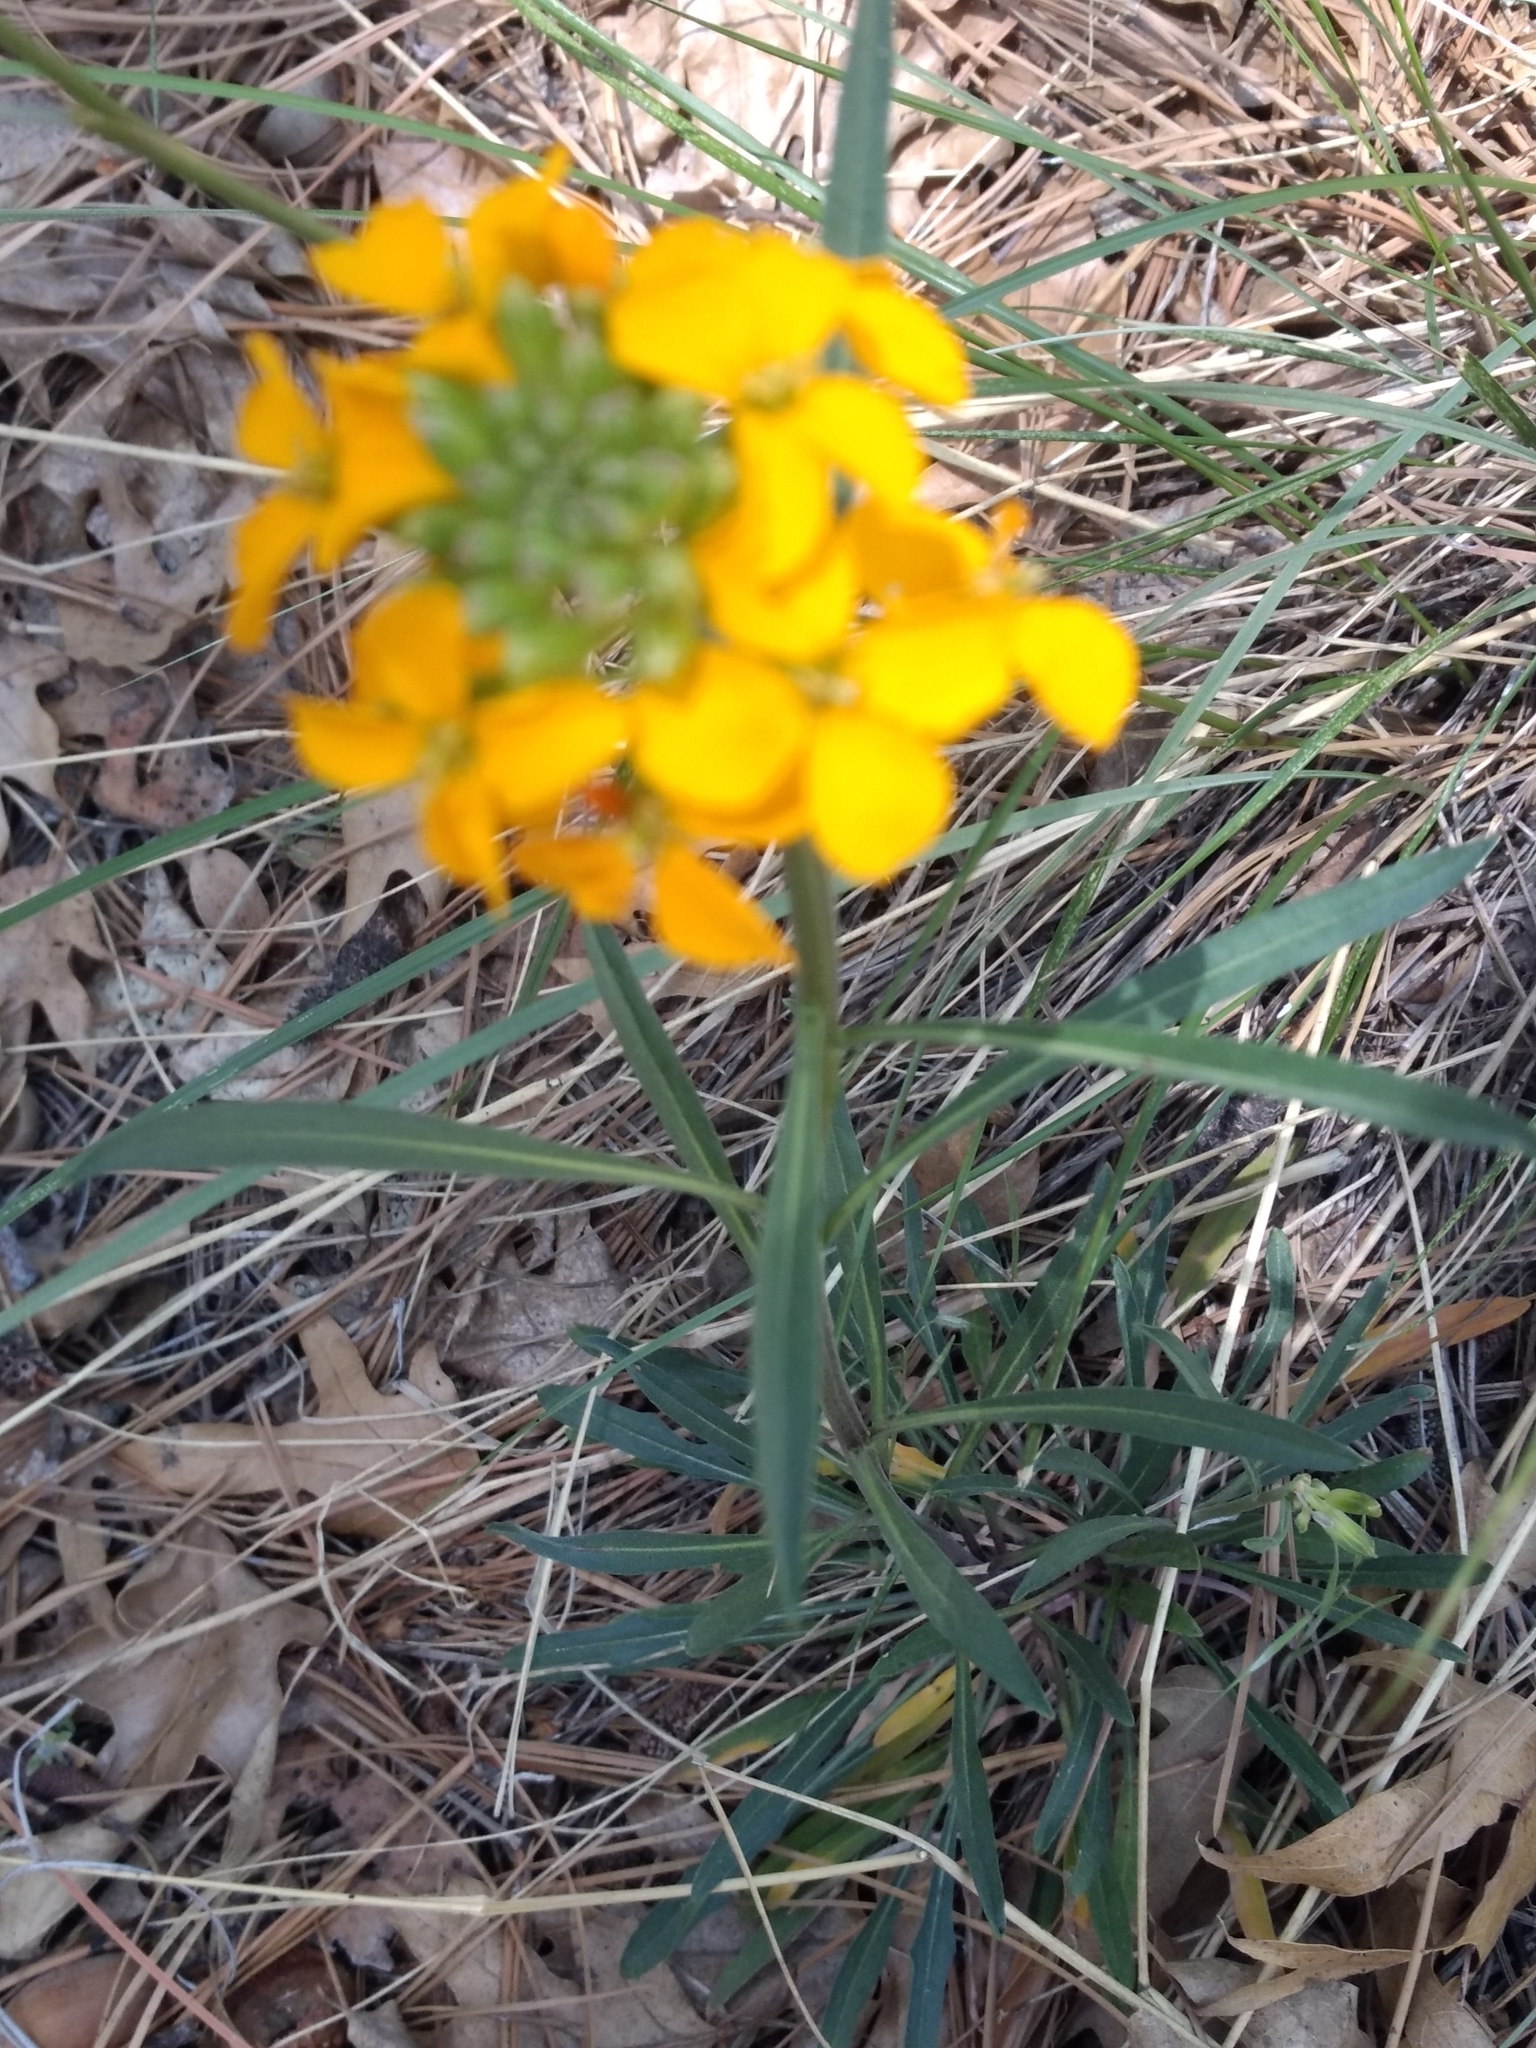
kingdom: Plantae
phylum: Tracheophyta
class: Magnoliopsida
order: Brassicales
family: Brassicaceae
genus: Erysimum
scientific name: Erysimum capitatum
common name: Western wallflower
